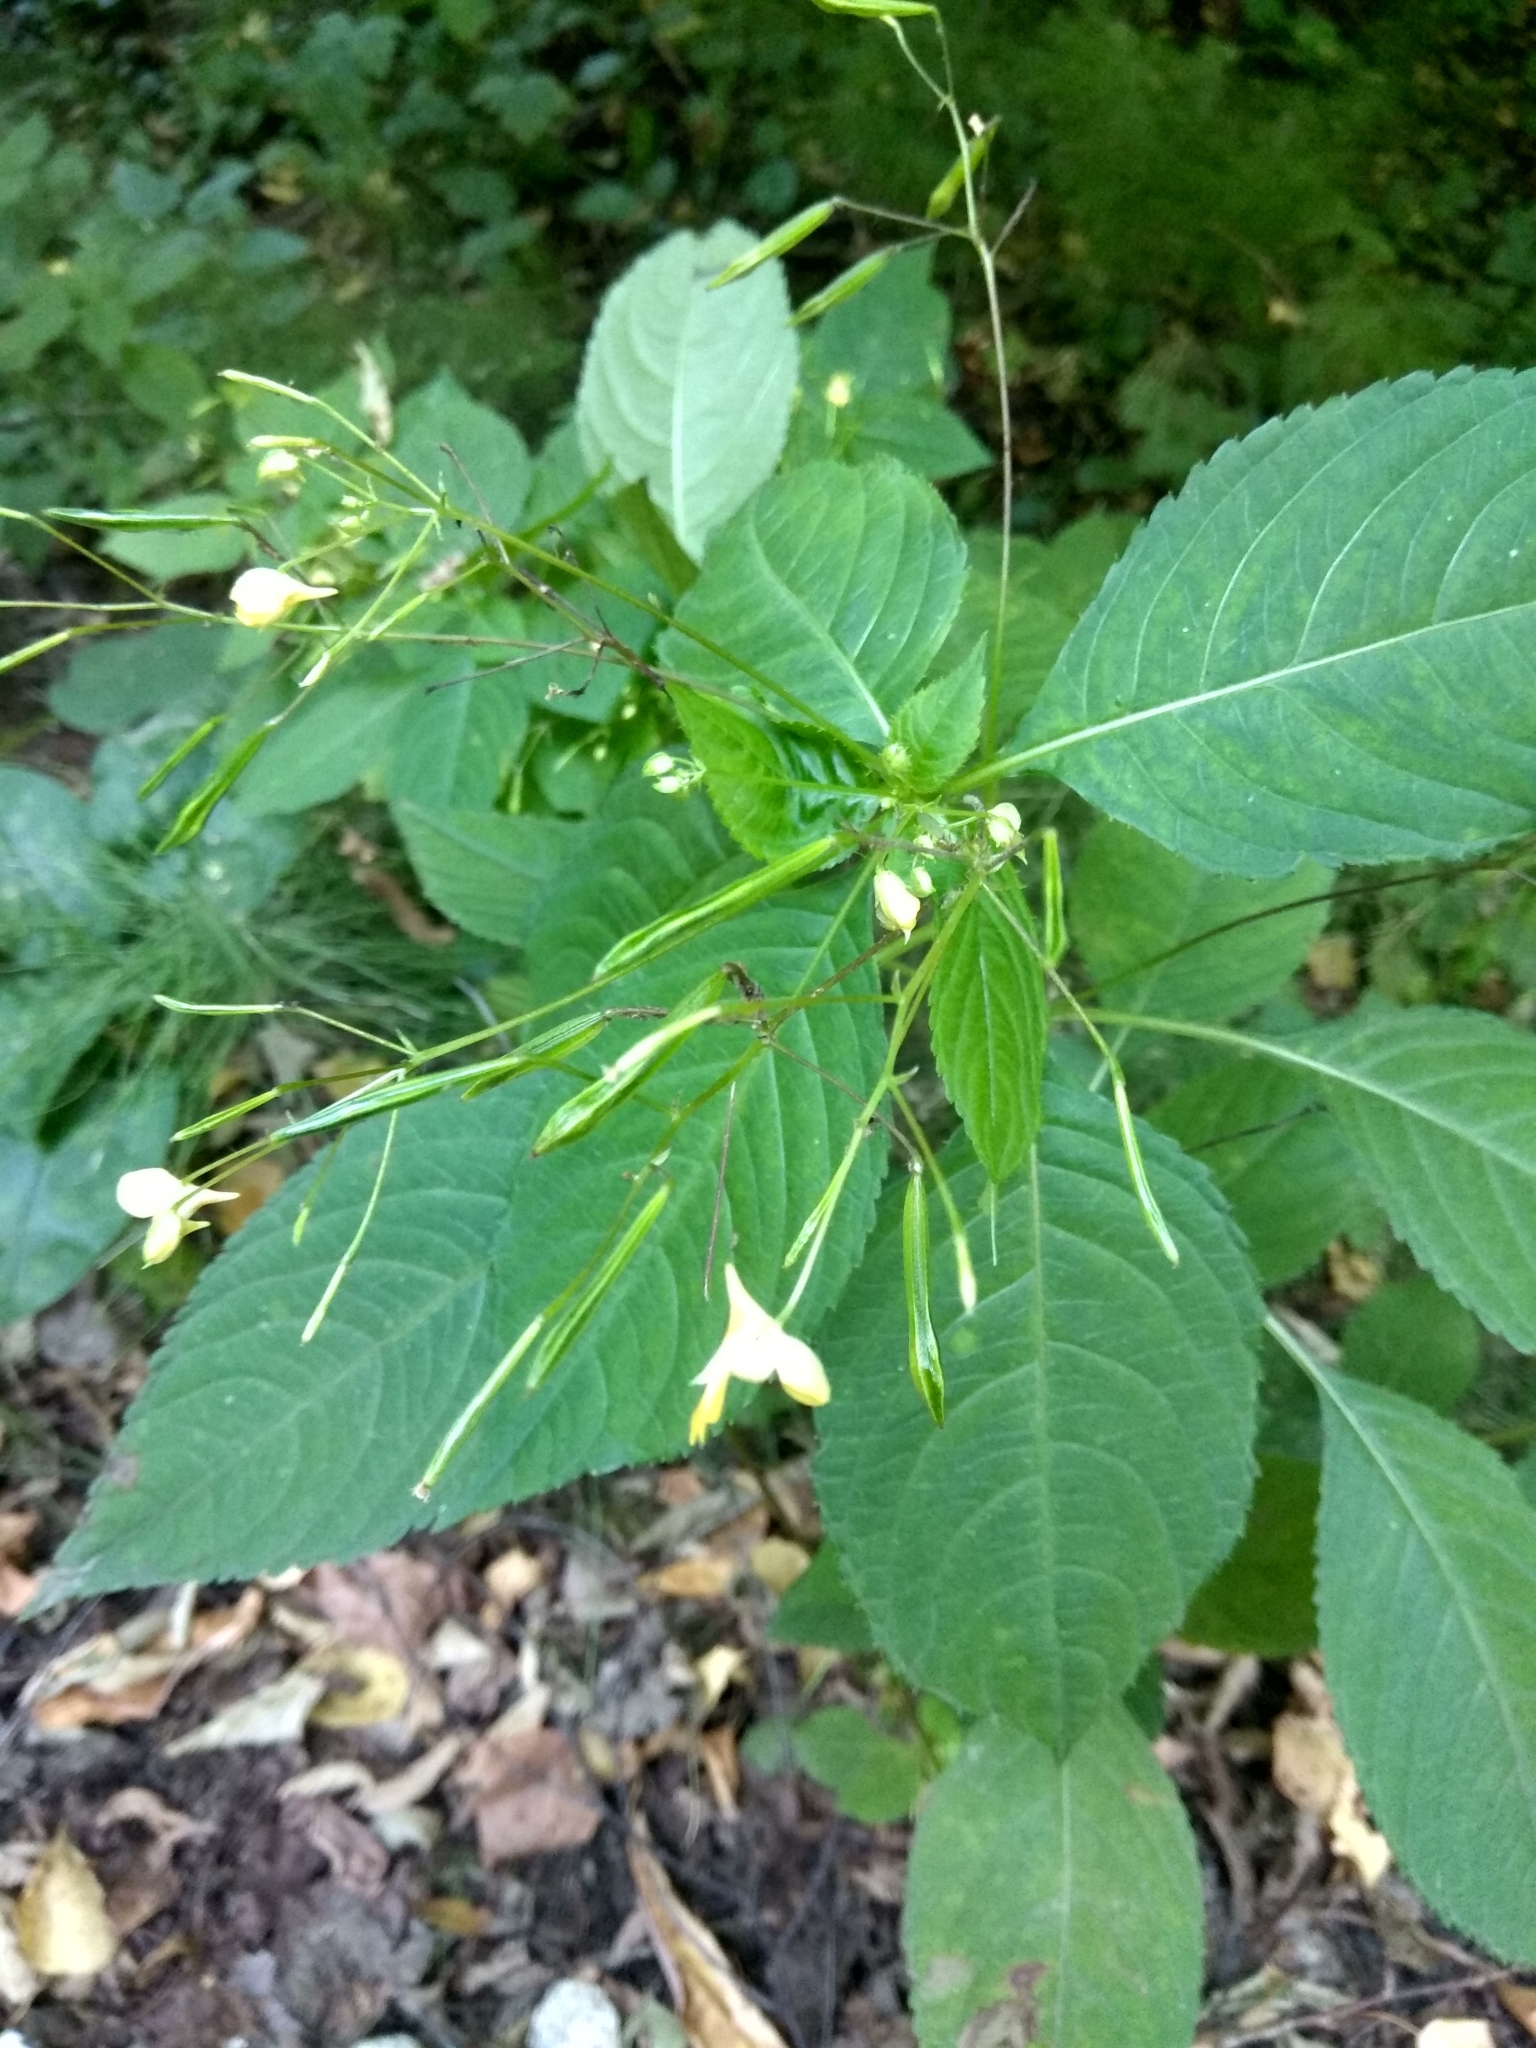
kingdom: Plantae
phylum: Tracheophyta
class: Magnoliopsida
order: Ericales
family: Balsaminaceae
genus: Impatiens
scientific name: Impatiens parviflora
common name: Small balsam
